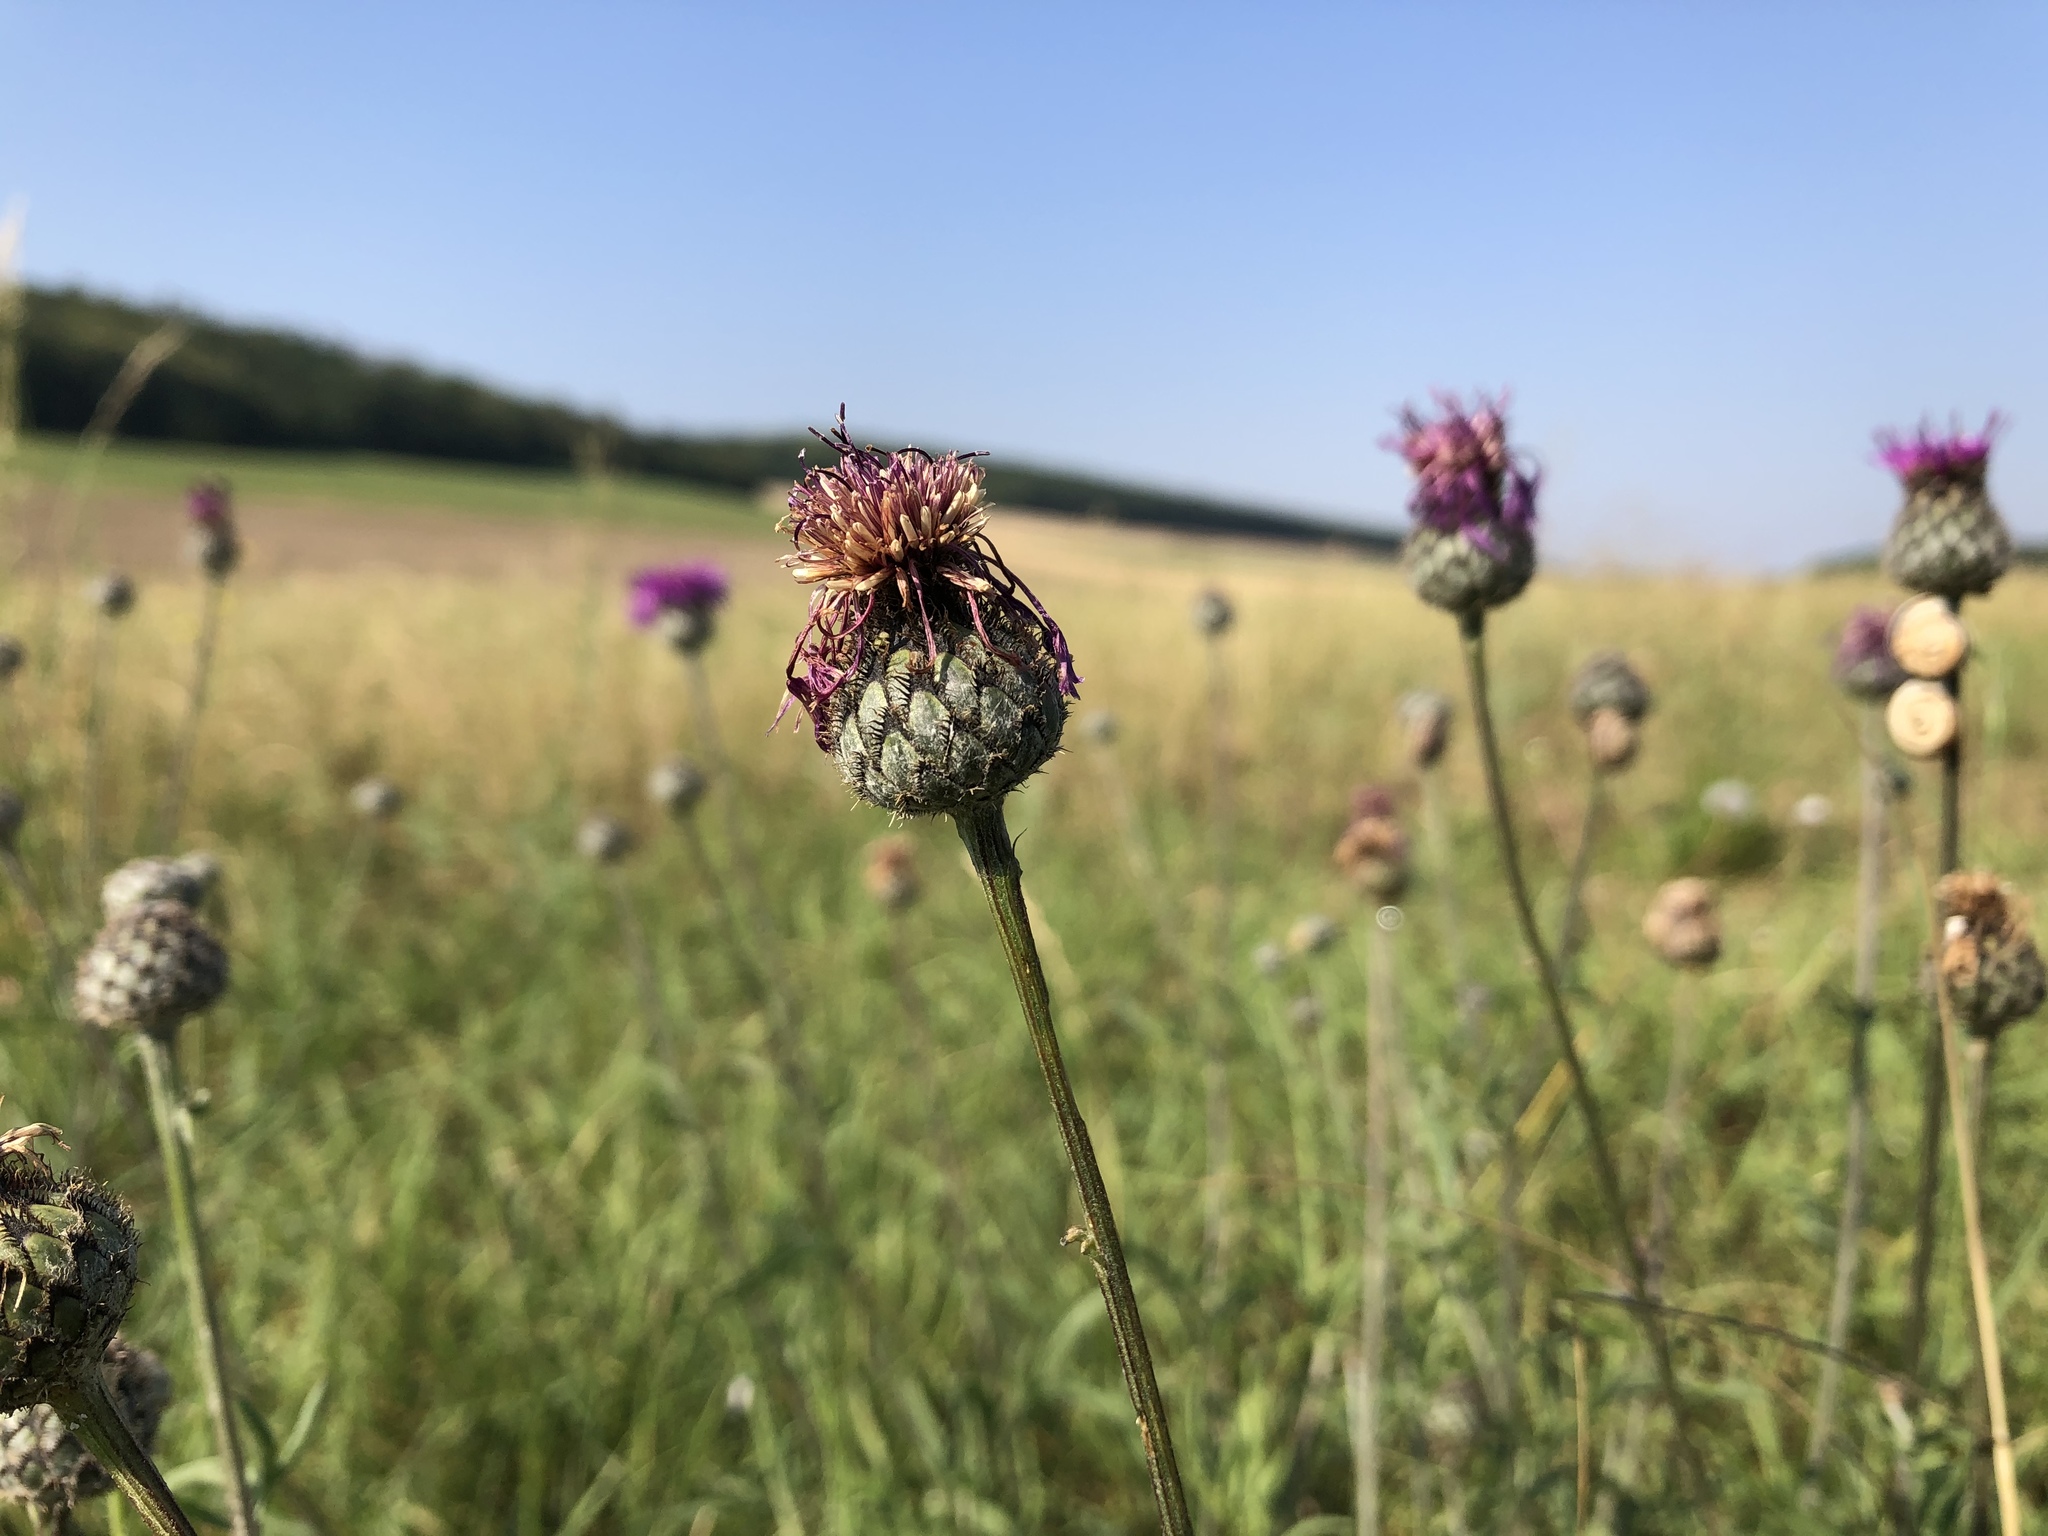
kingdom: Plantae
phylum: Tracheophyta
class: Magnoliopsida
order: Asterales
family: Asteraceae
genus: Centaurea
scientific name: Centaurea scabiosa
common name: Greater knapweed
